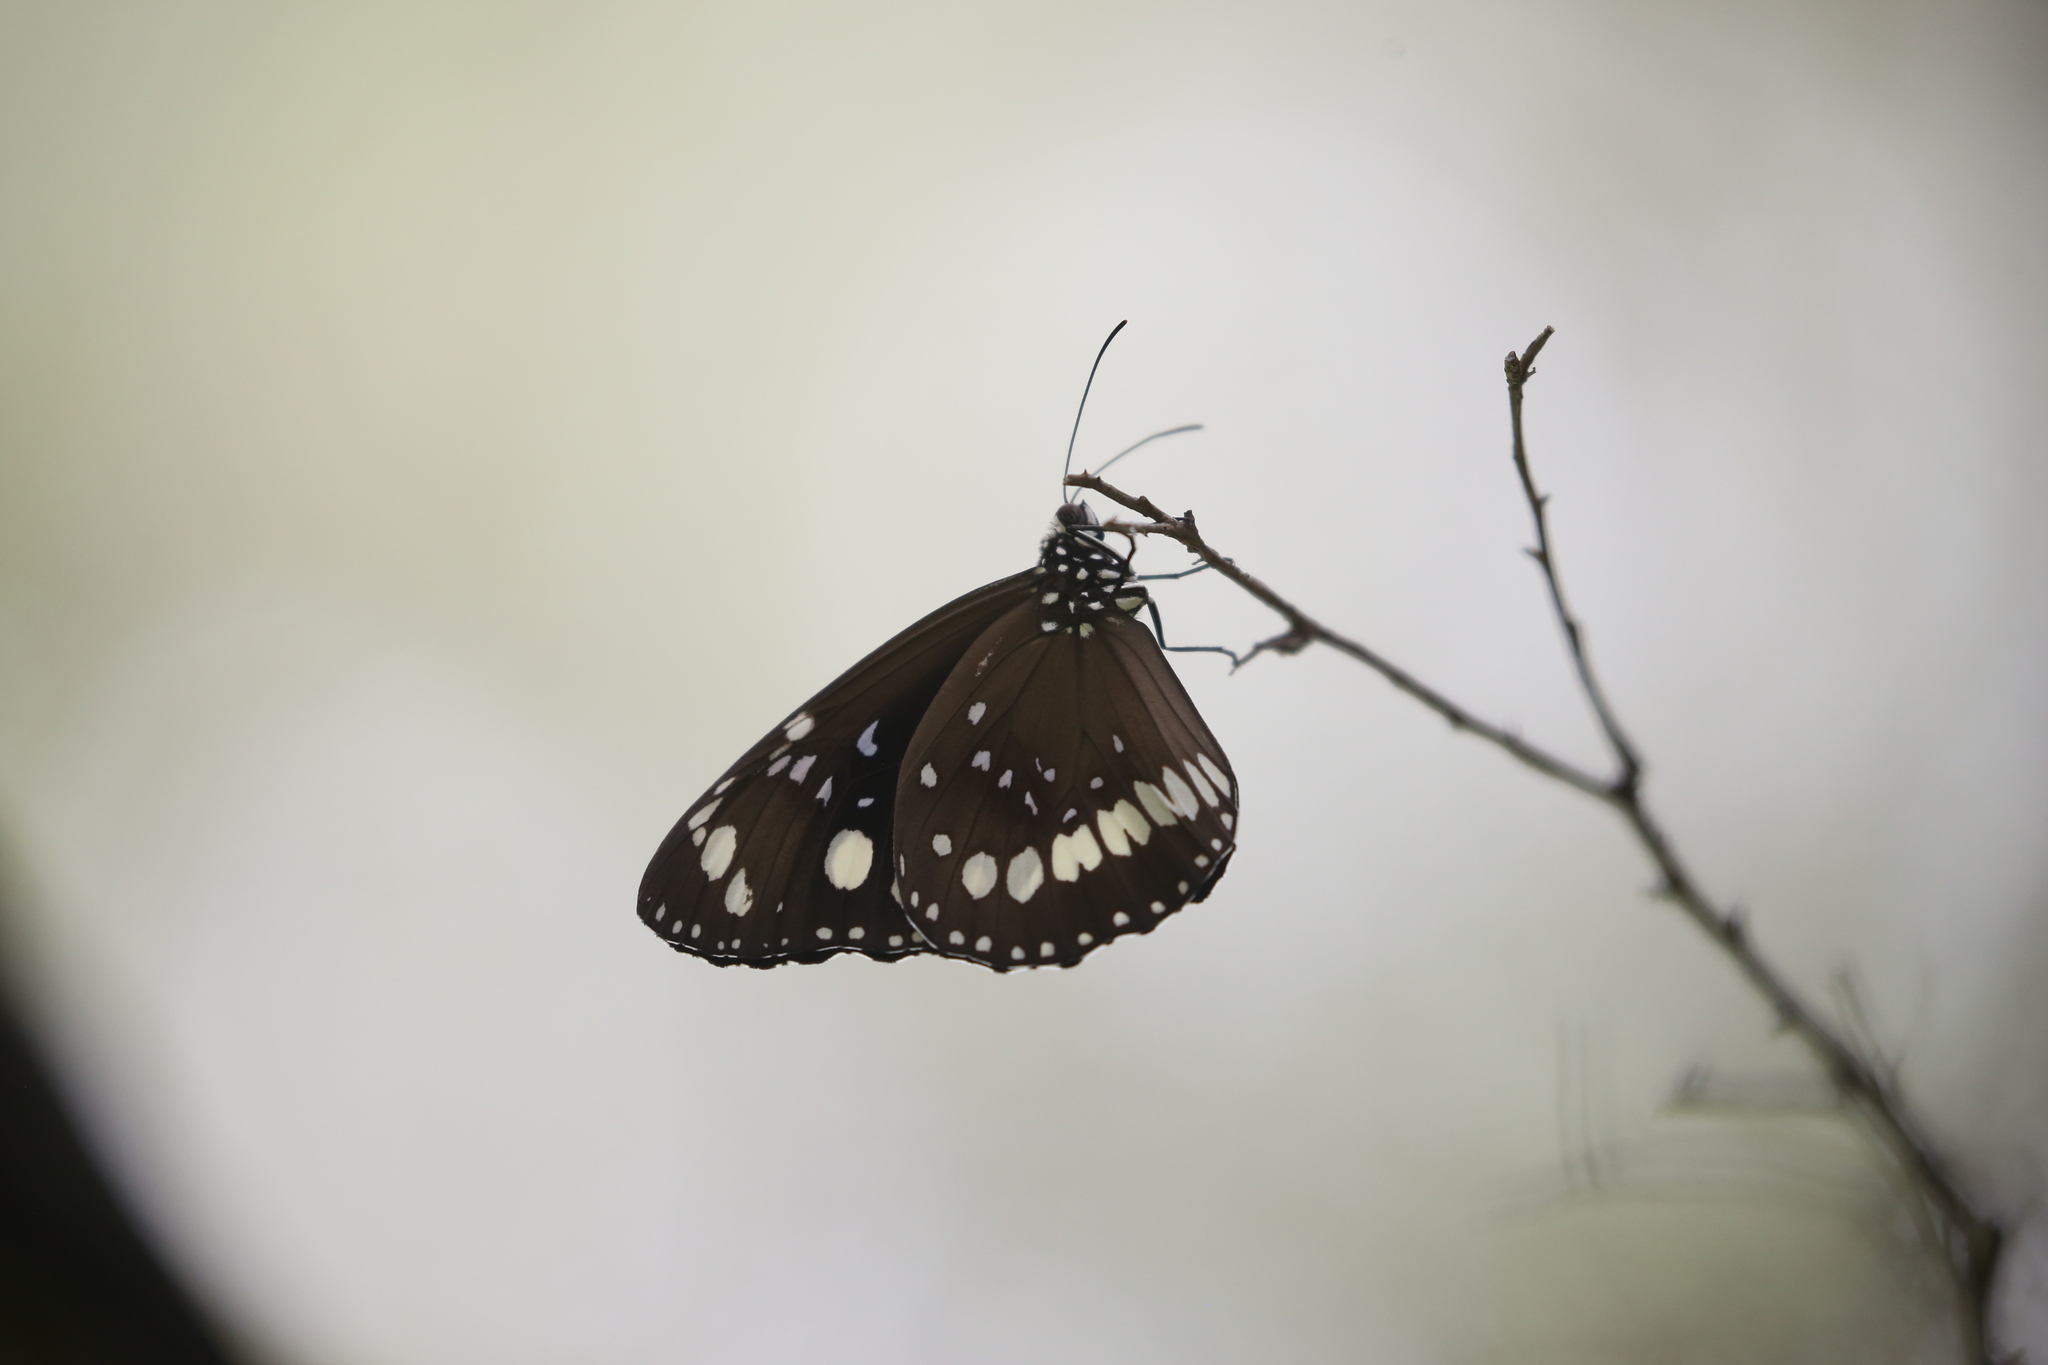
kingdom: Animalia
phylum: Arthropoda
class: Insecta
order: Lepidoptera
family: Nymphalidae
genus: Euploea
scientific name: Euploea core
